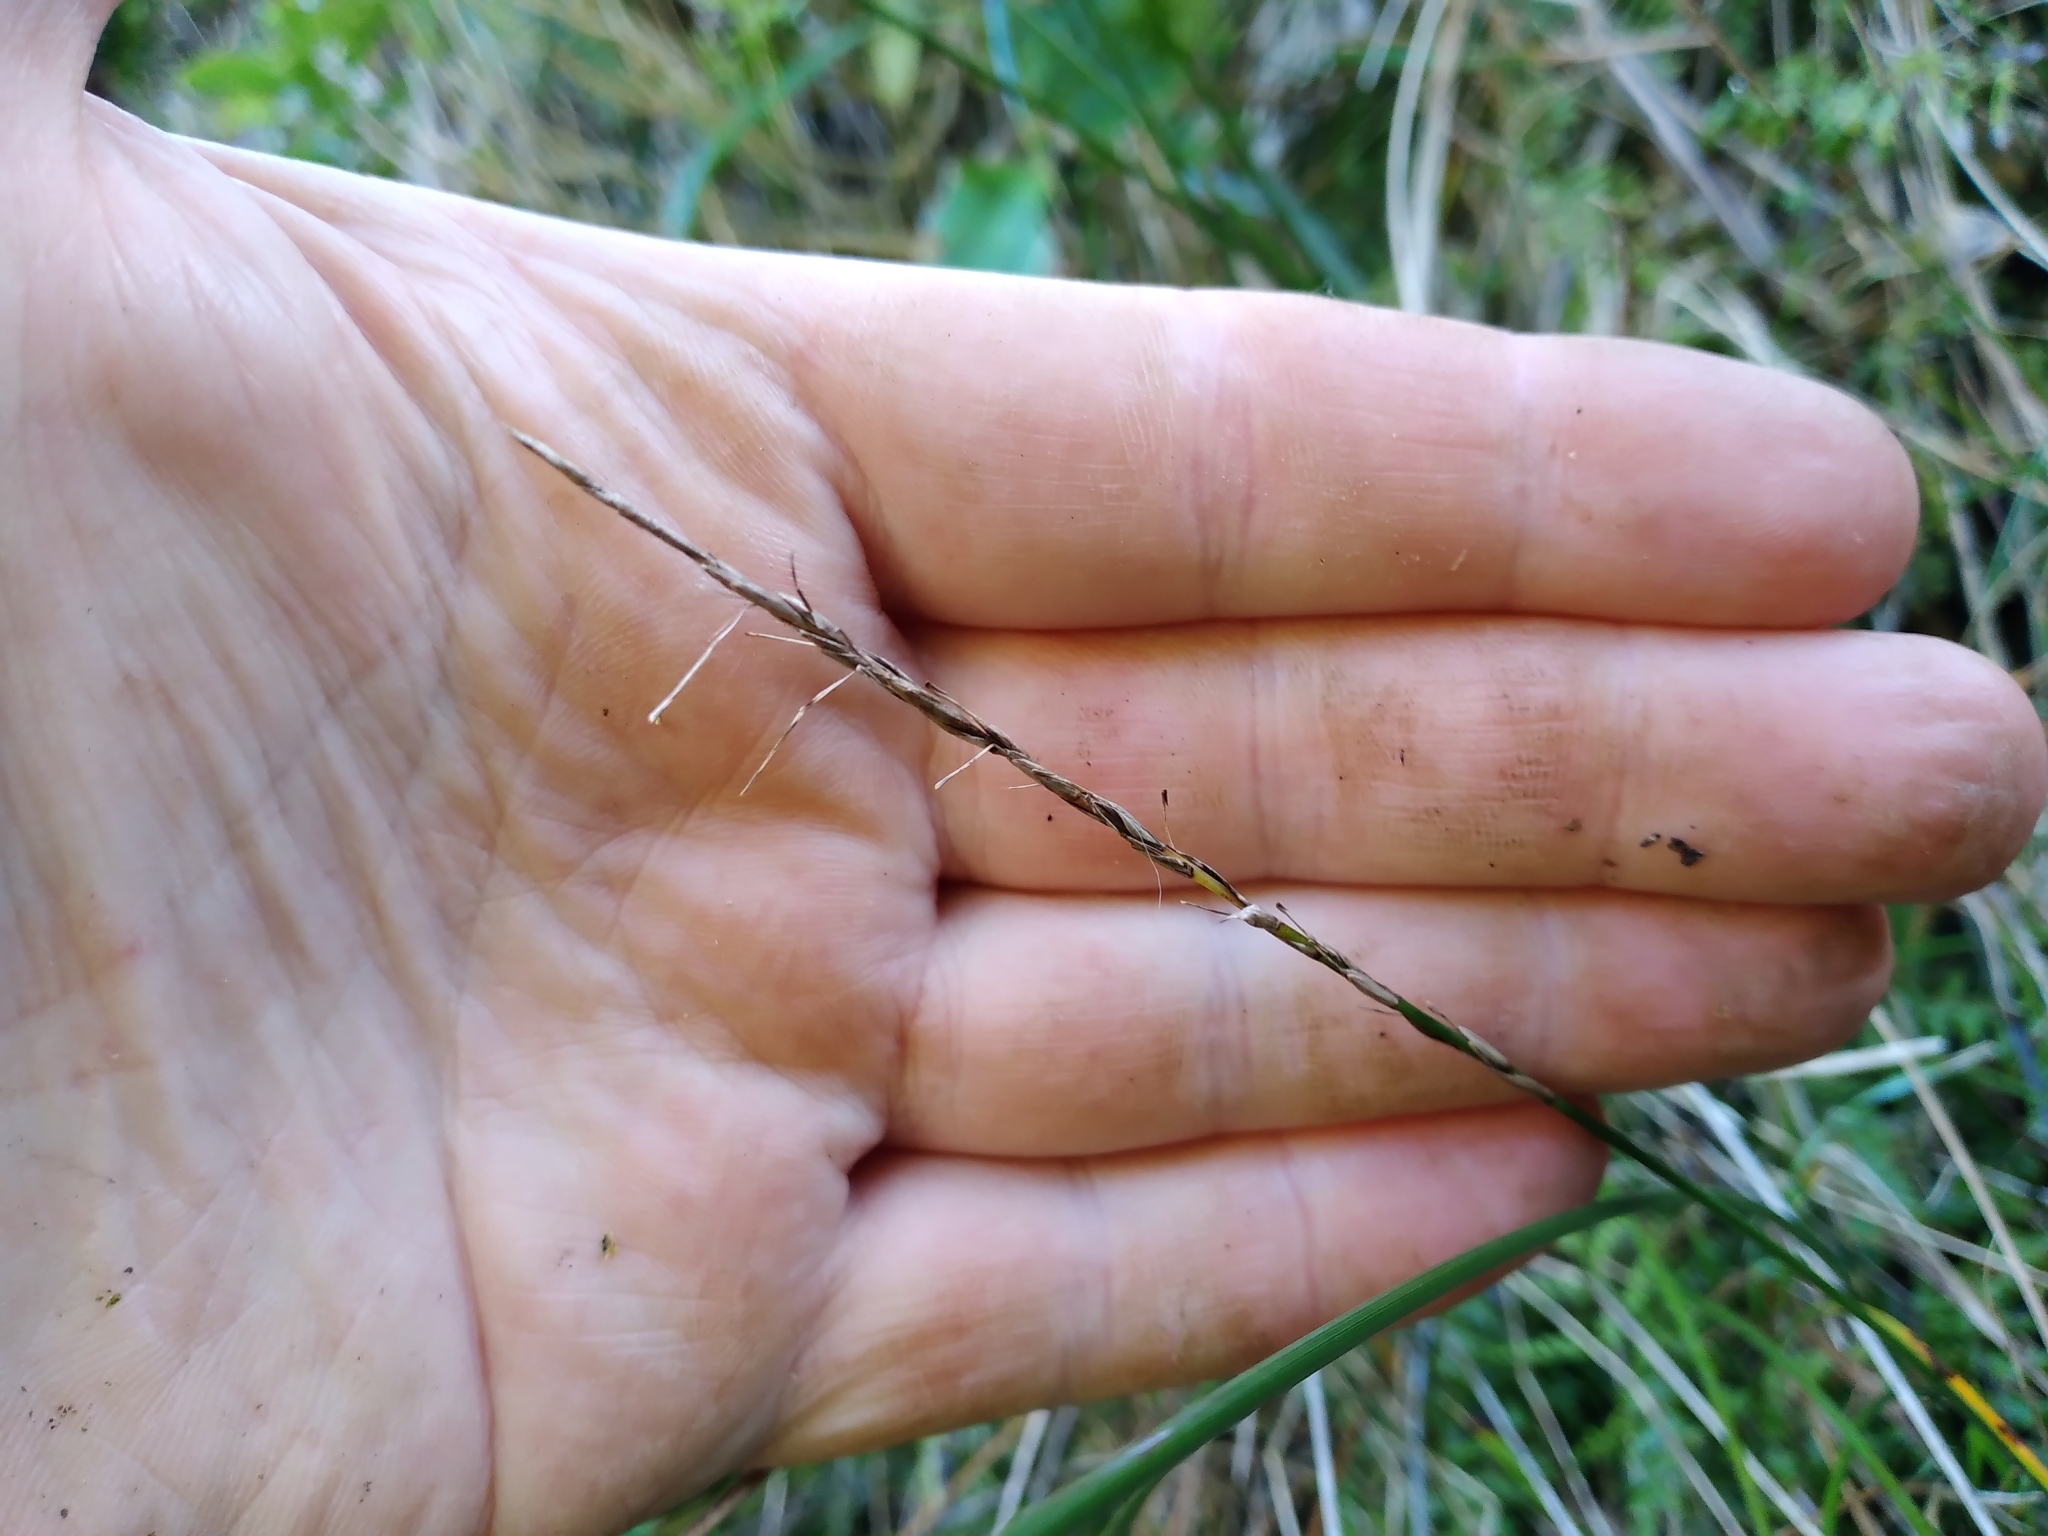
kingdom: Plantae
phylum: Tracheophyta
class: Liliopsida
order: Poales
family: Cyperaceae
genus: Carex
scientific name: Carex cyanea
